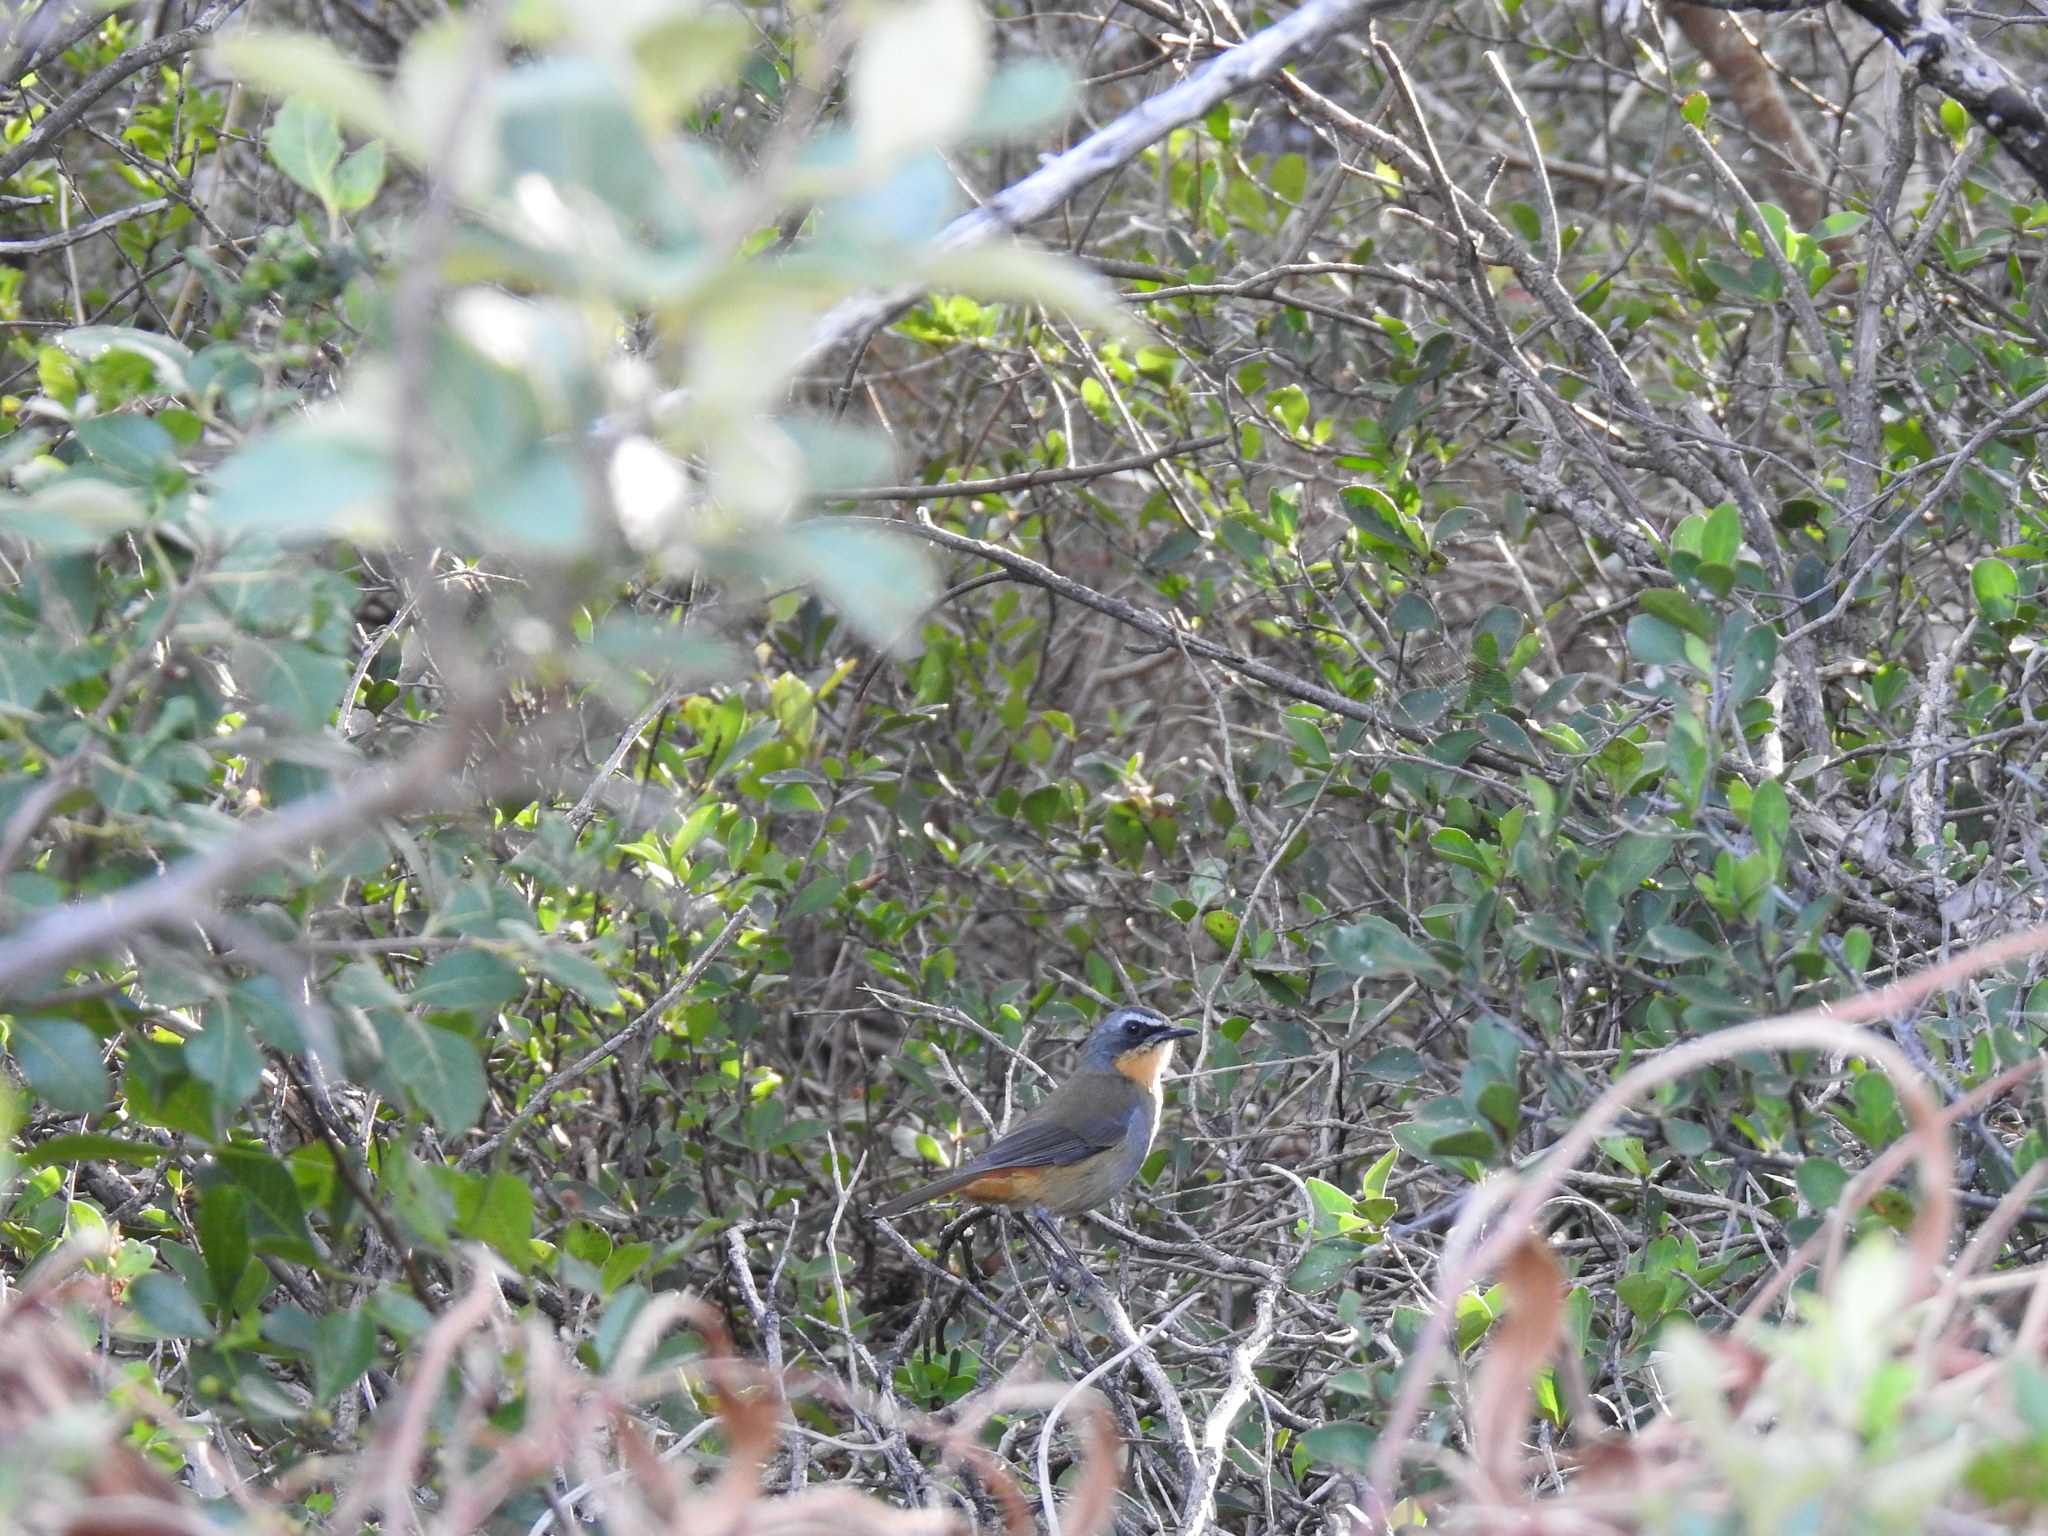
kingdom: Animalia
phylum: Chordata
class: Aves
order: Passeriformes
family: Muscicapidae
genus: Cossypha
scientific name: Cossypha caffra
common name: Cape robin-chat
